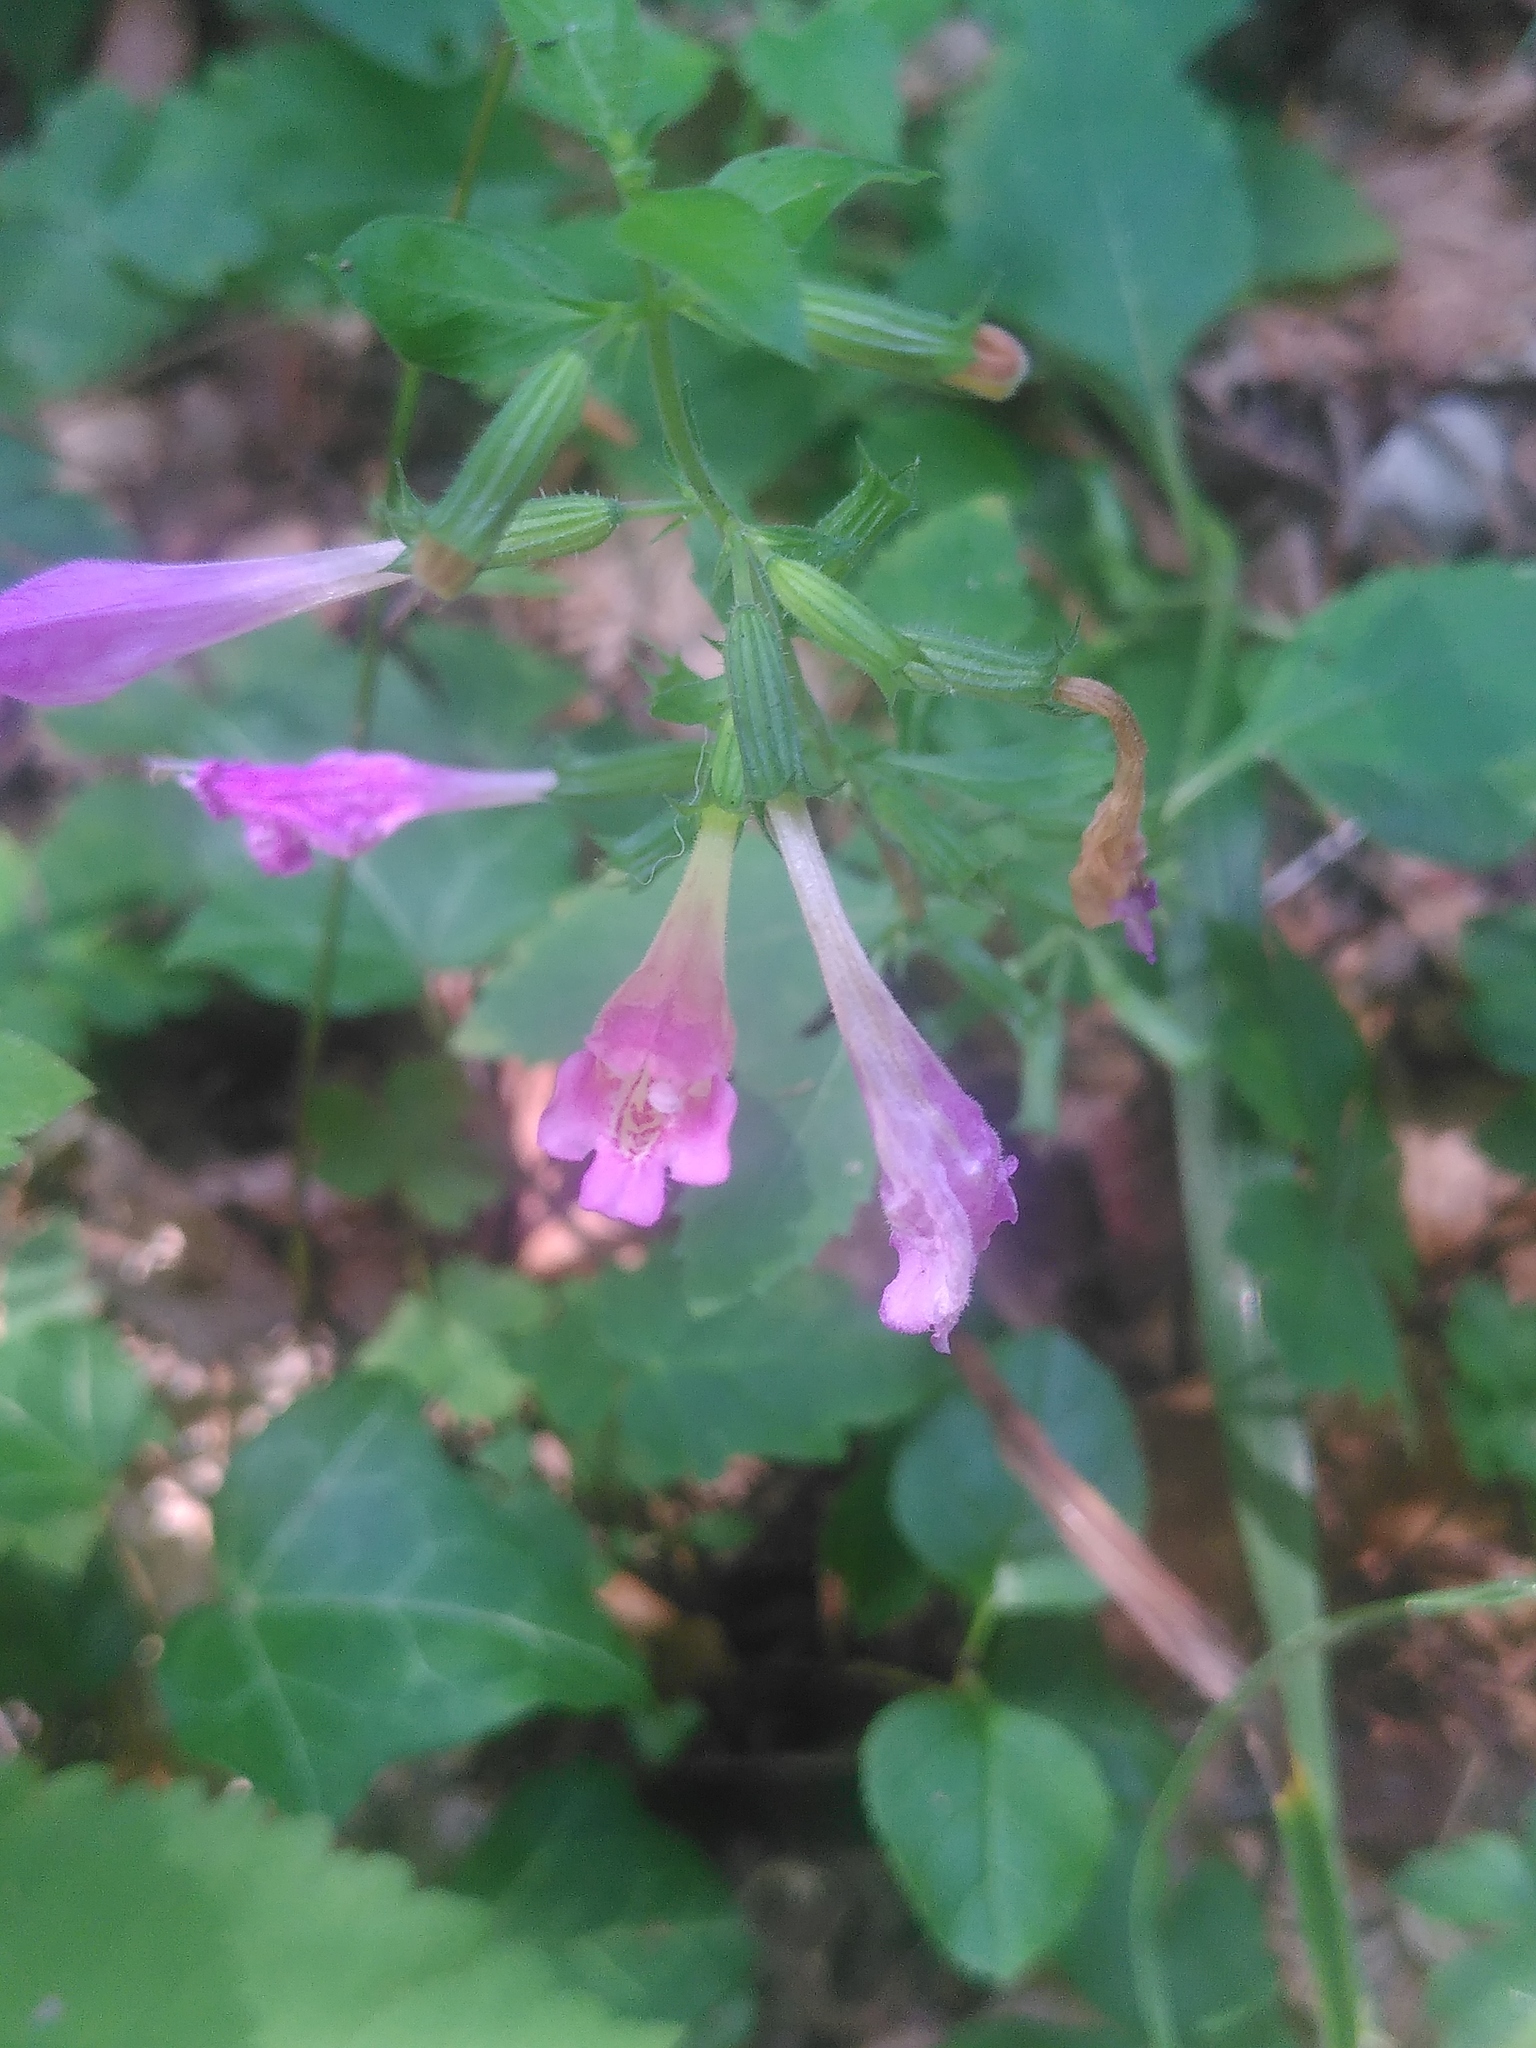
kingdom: Plantae
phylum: Tracheophyta
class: Magnoliopsida
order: Lamiales
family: Lamiaceae
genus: Clinopodium
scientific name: Clinopodium grandiflorum
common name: Greater calamint
